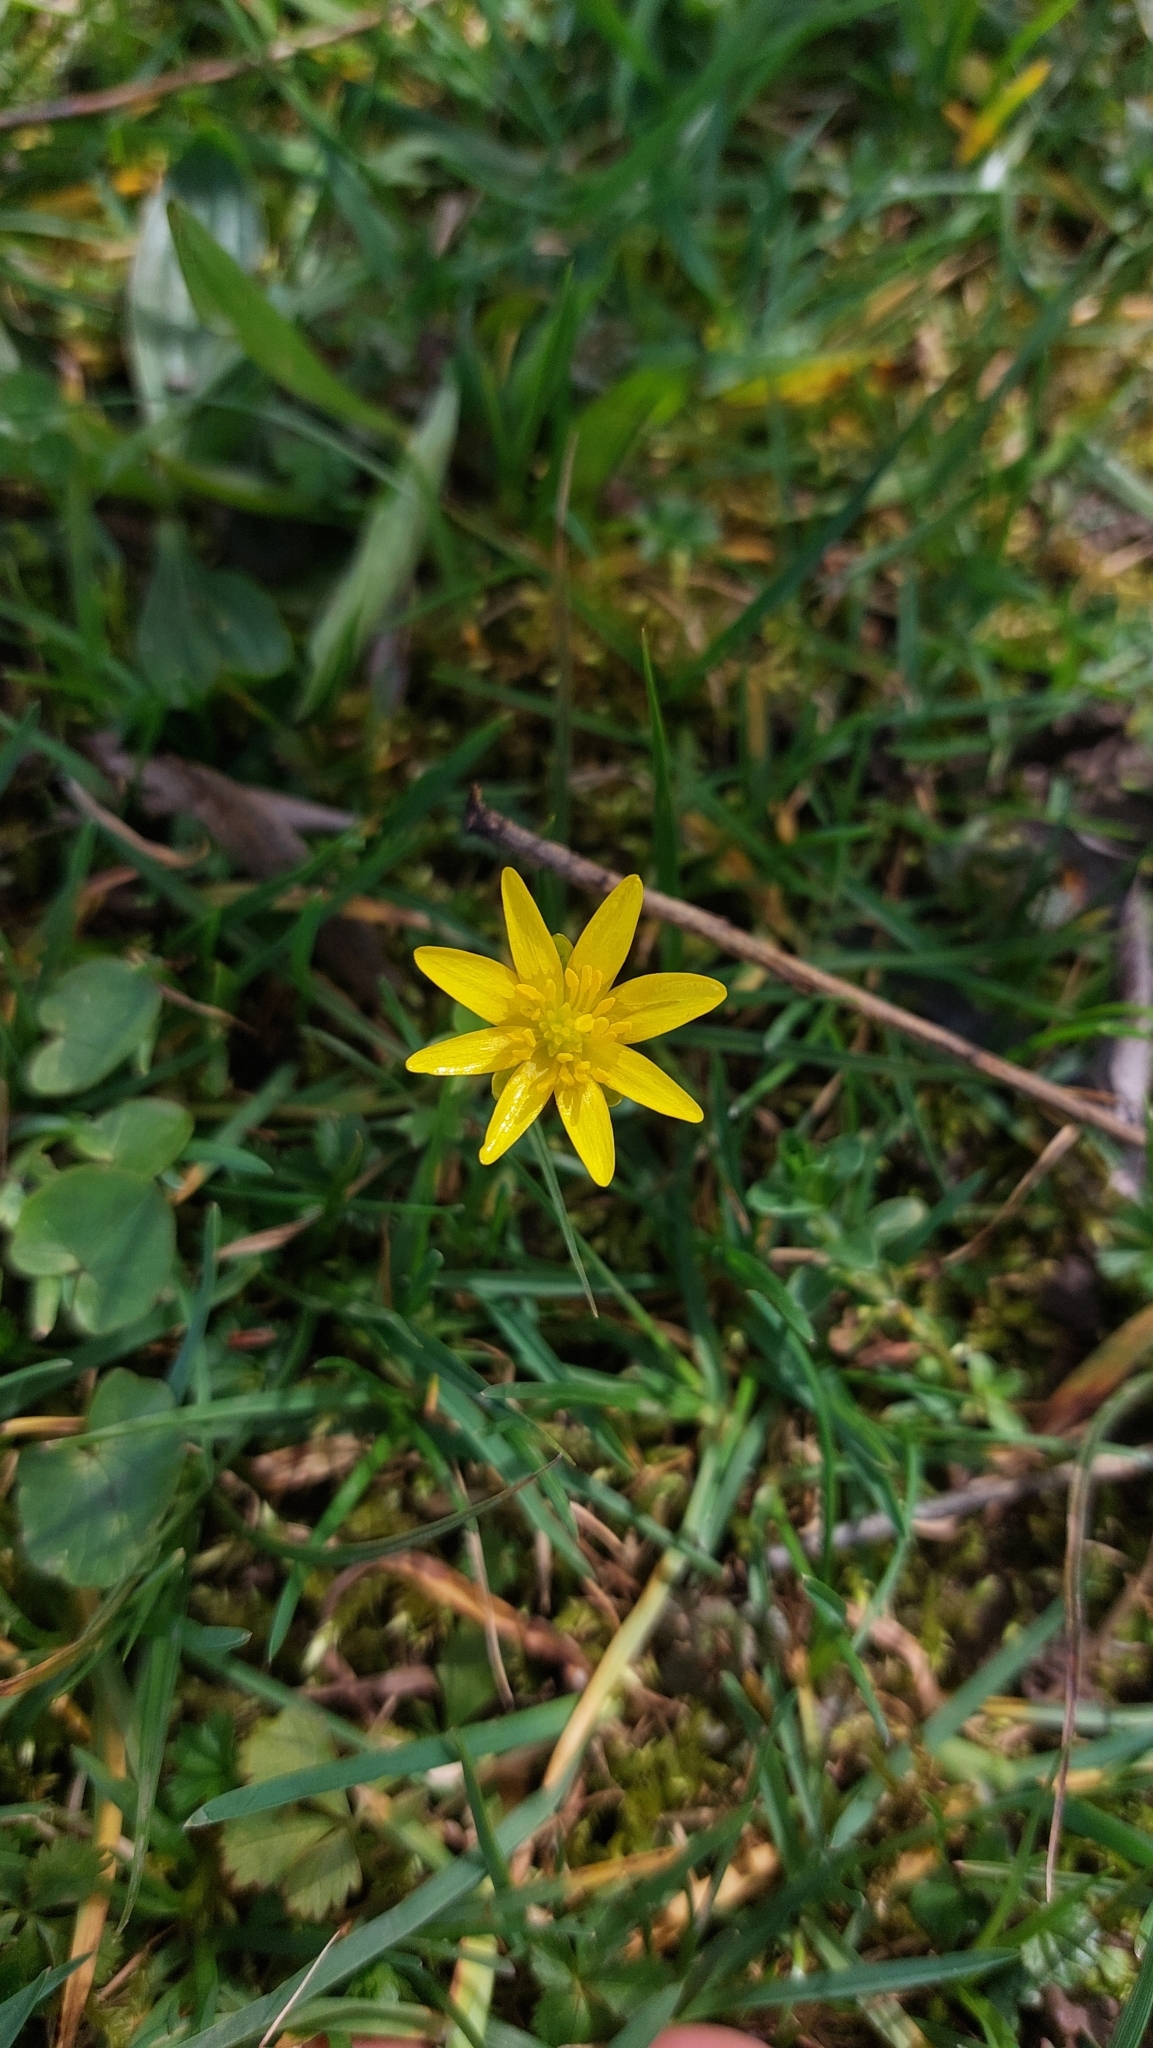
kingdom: Plantae
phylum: Tracheophyta
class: Magnoliopsida
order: Ranunculales
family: Ranunculaceae
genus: Ficaria
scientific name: Ficaria verna
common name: Lesser celandine
